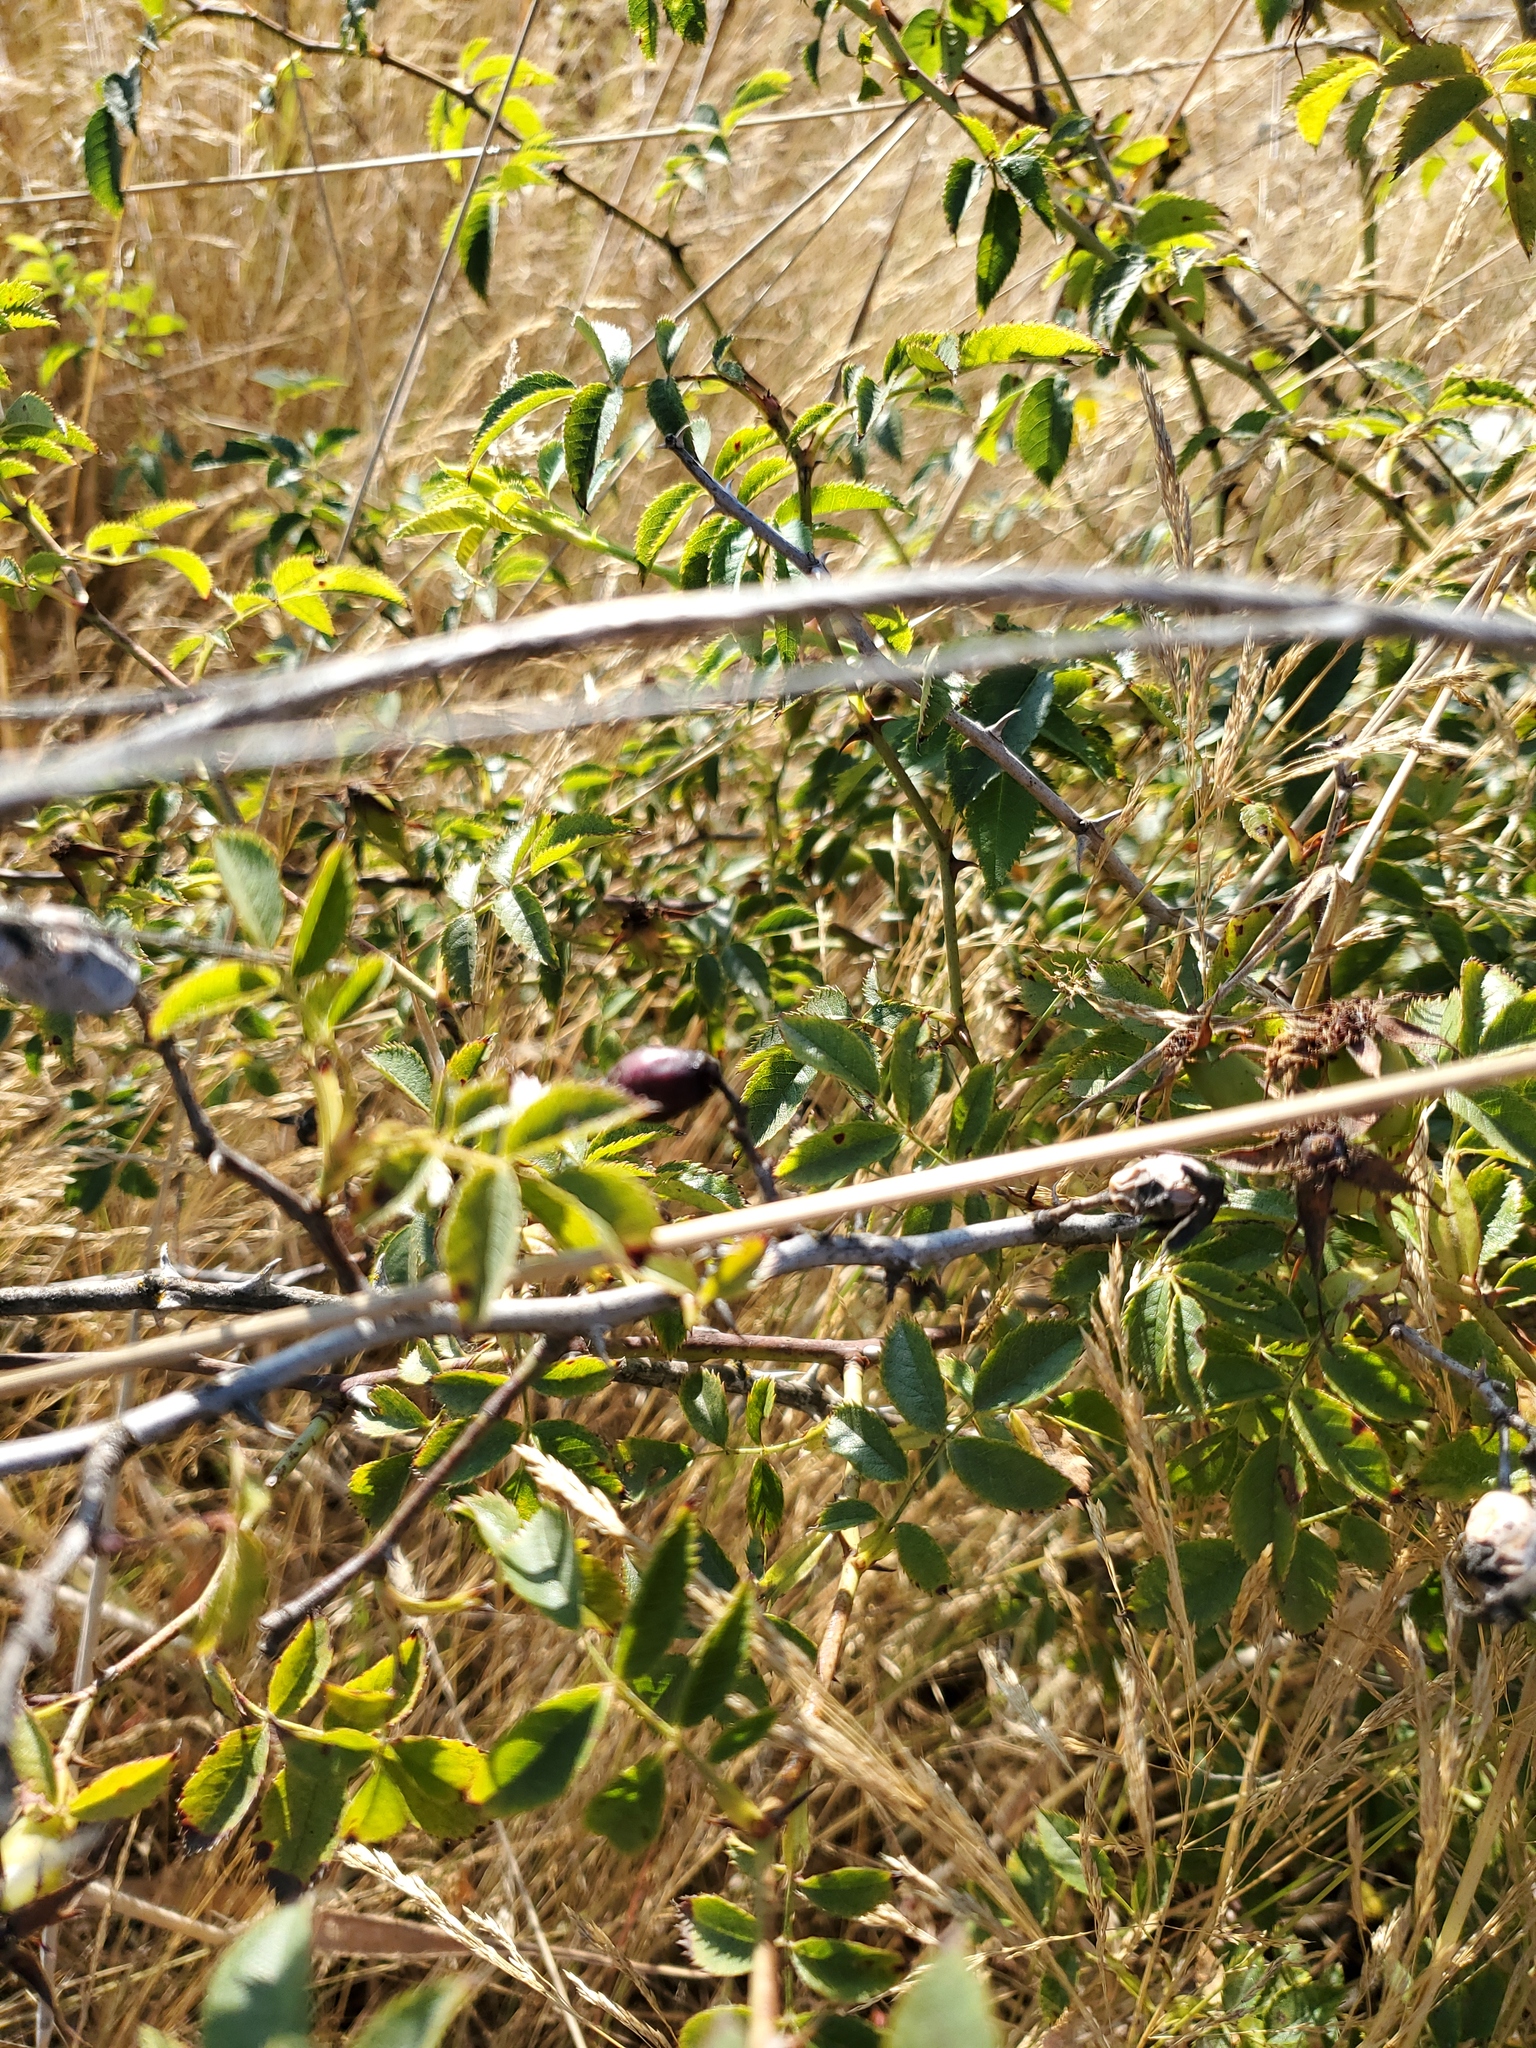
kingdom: Animalia
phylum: Arthropoda
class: Insecta
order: Hymenoptera
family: Cynipidae
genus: Diplolepis
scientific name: Diplolepis rosae
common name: Bedeguar gall
